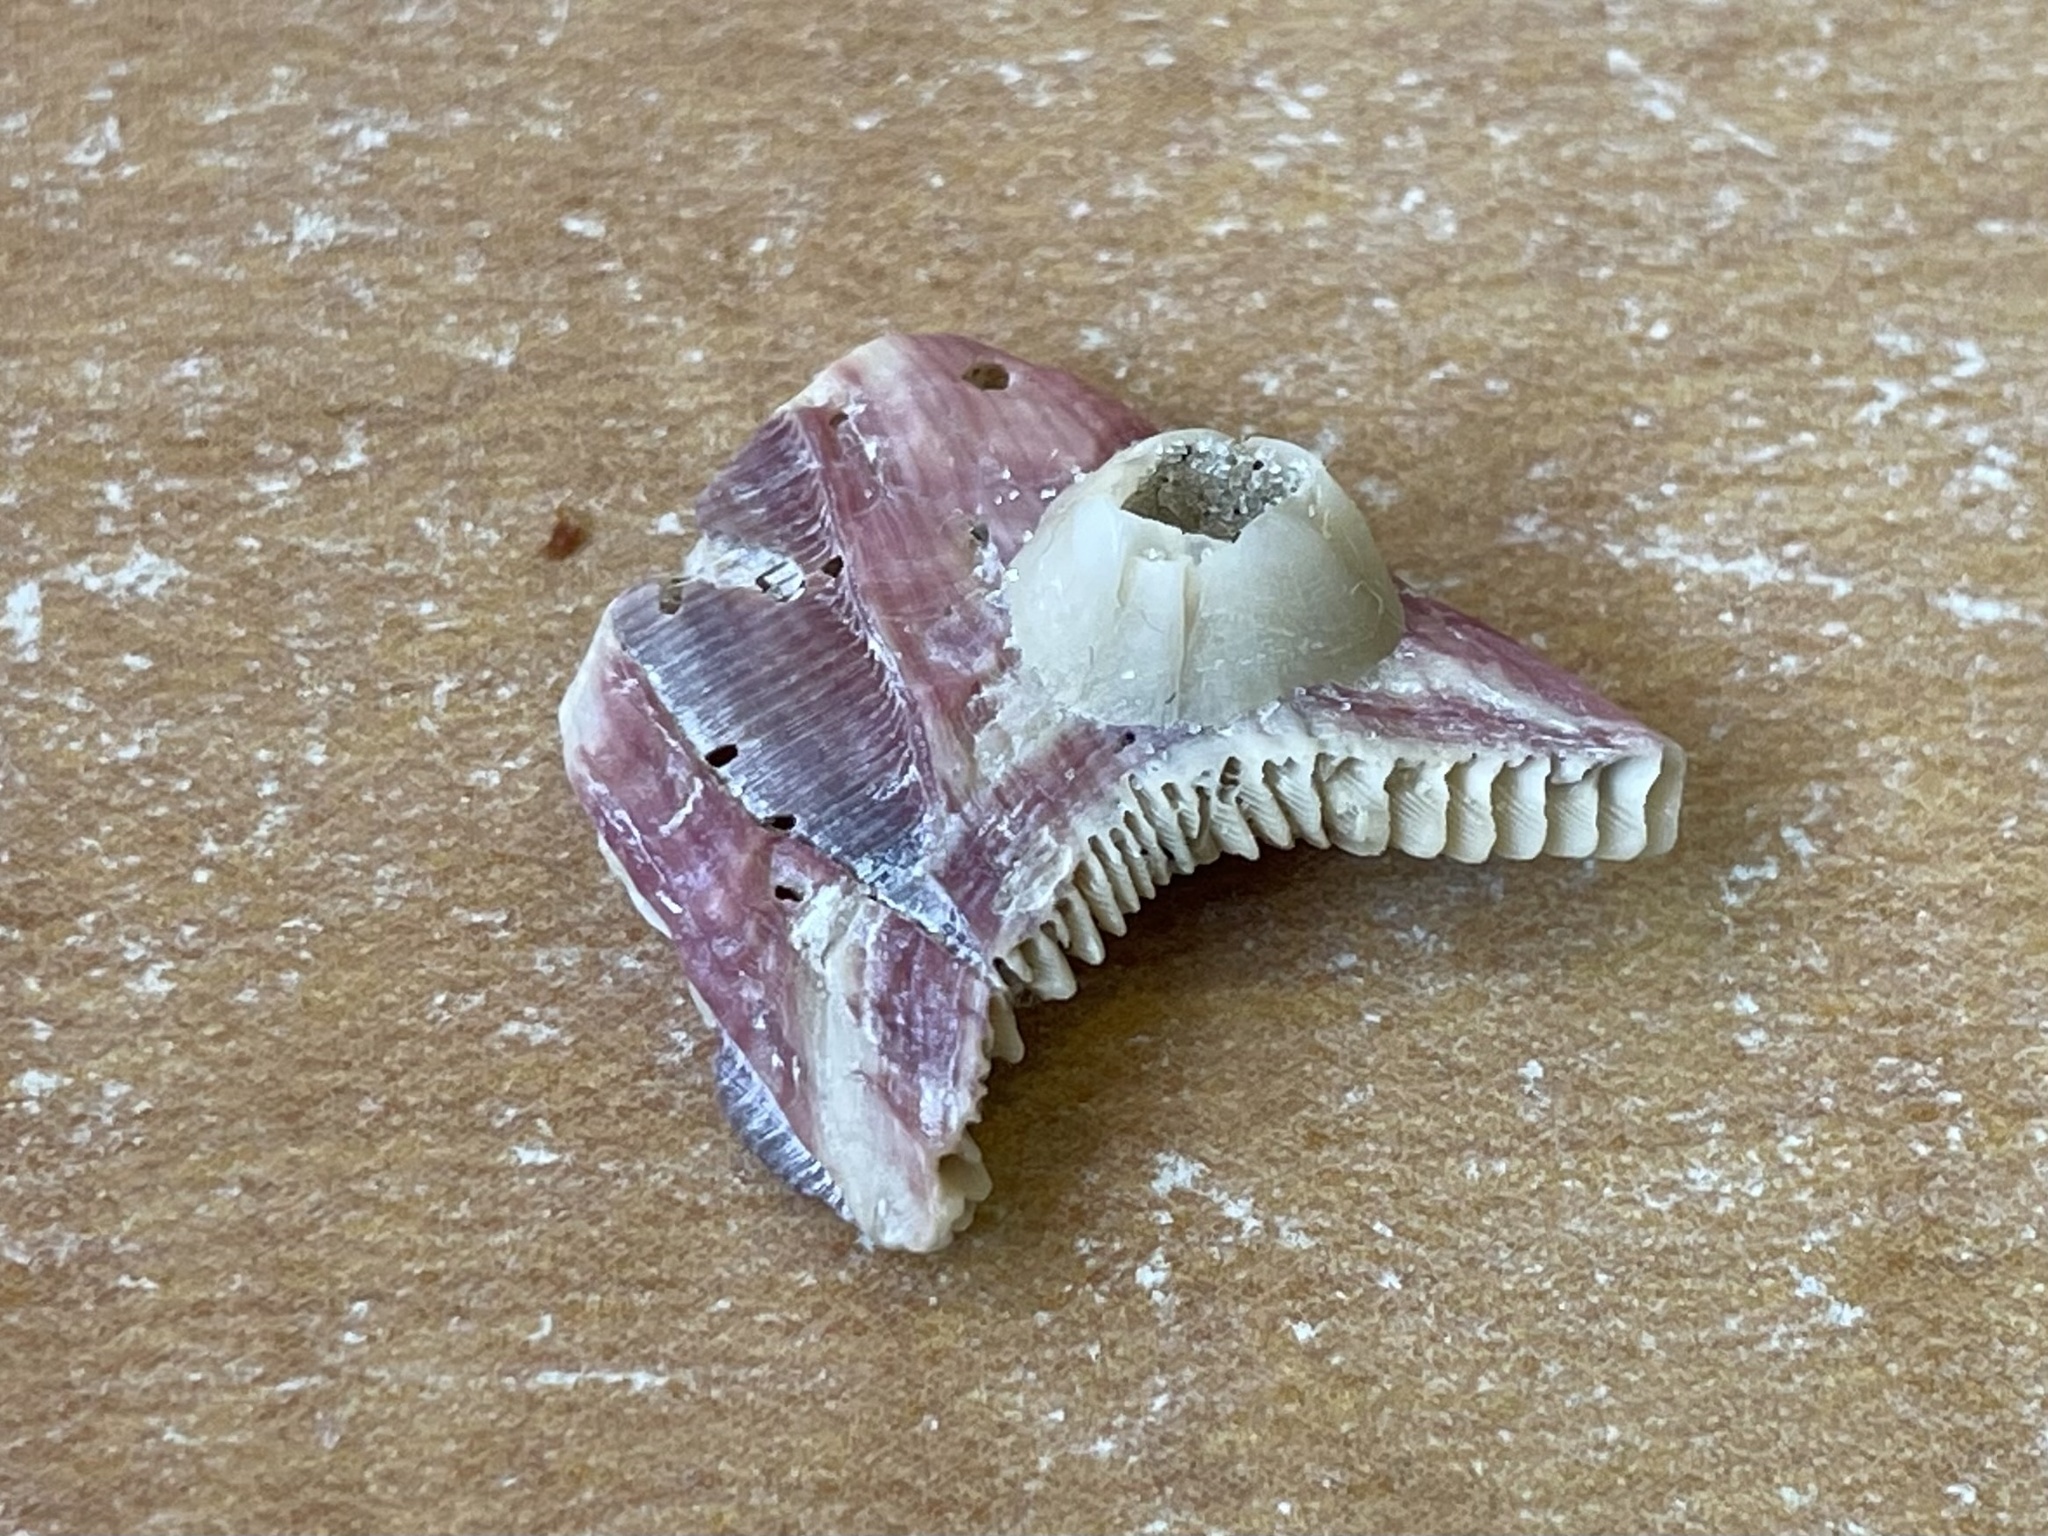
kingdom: Animalia
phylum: Arthropoda
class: Maxillopoda
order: Sessilia
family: Balanidae
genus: Megabalanus
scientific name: Megabalanus tintinnabulum
